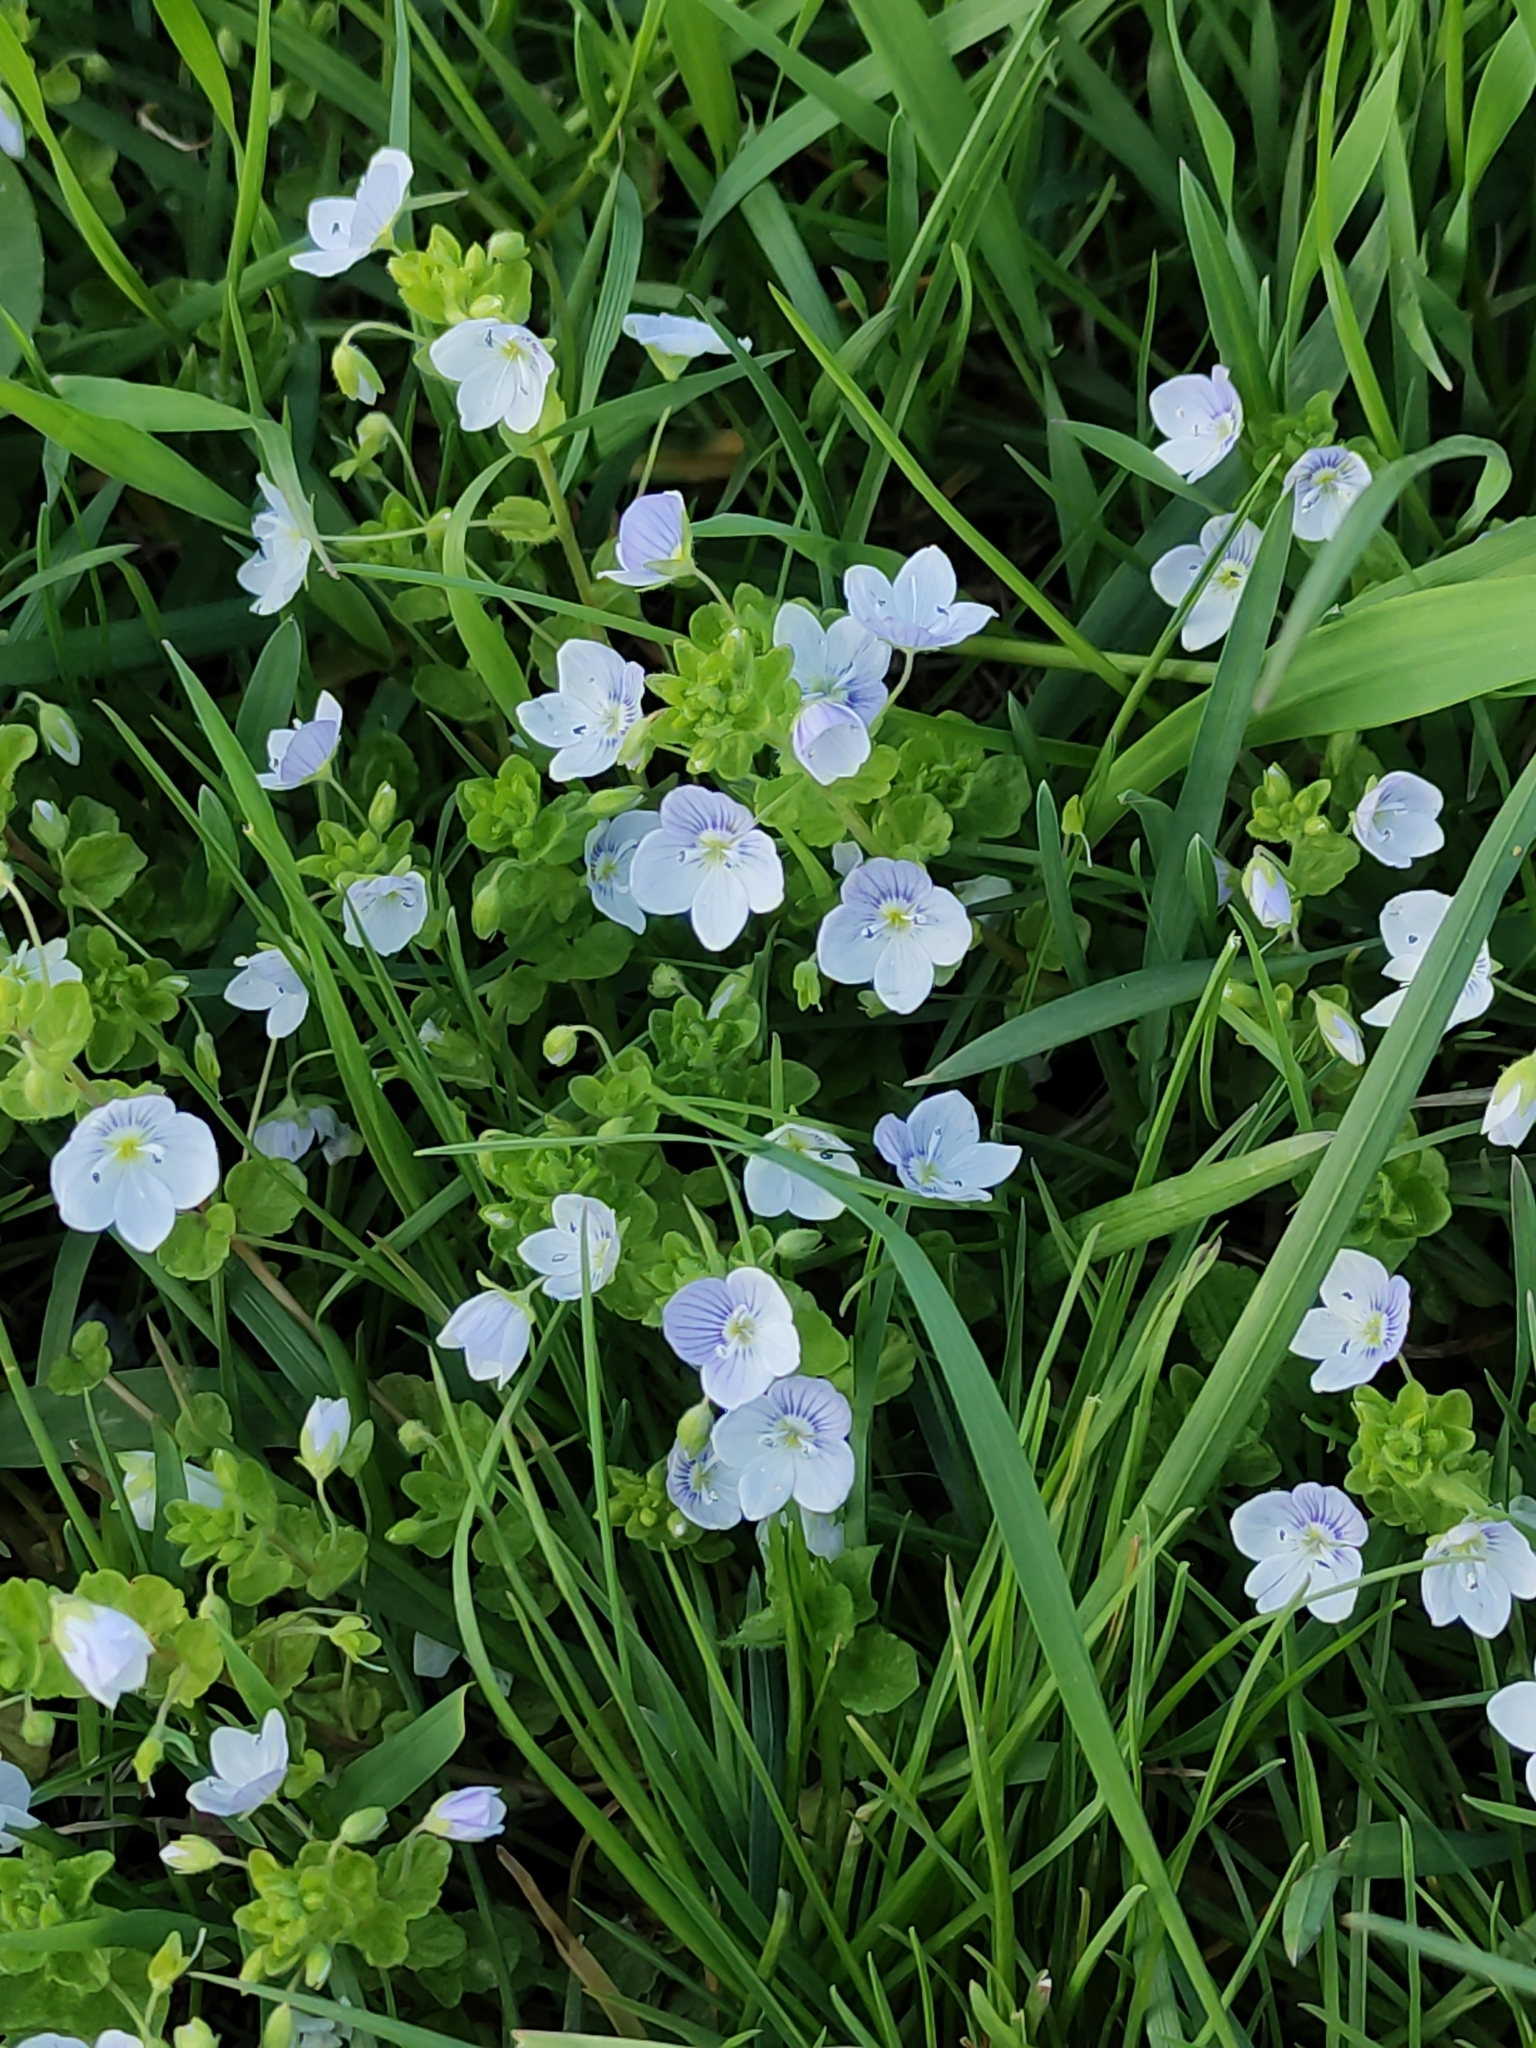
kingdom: Plantae
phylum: Tracheophyta
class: Magnoliopsida
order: Lamiales
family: Plantaginaceae
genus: Veronica
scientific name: Veronica filiformis
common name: Slender speedwell
